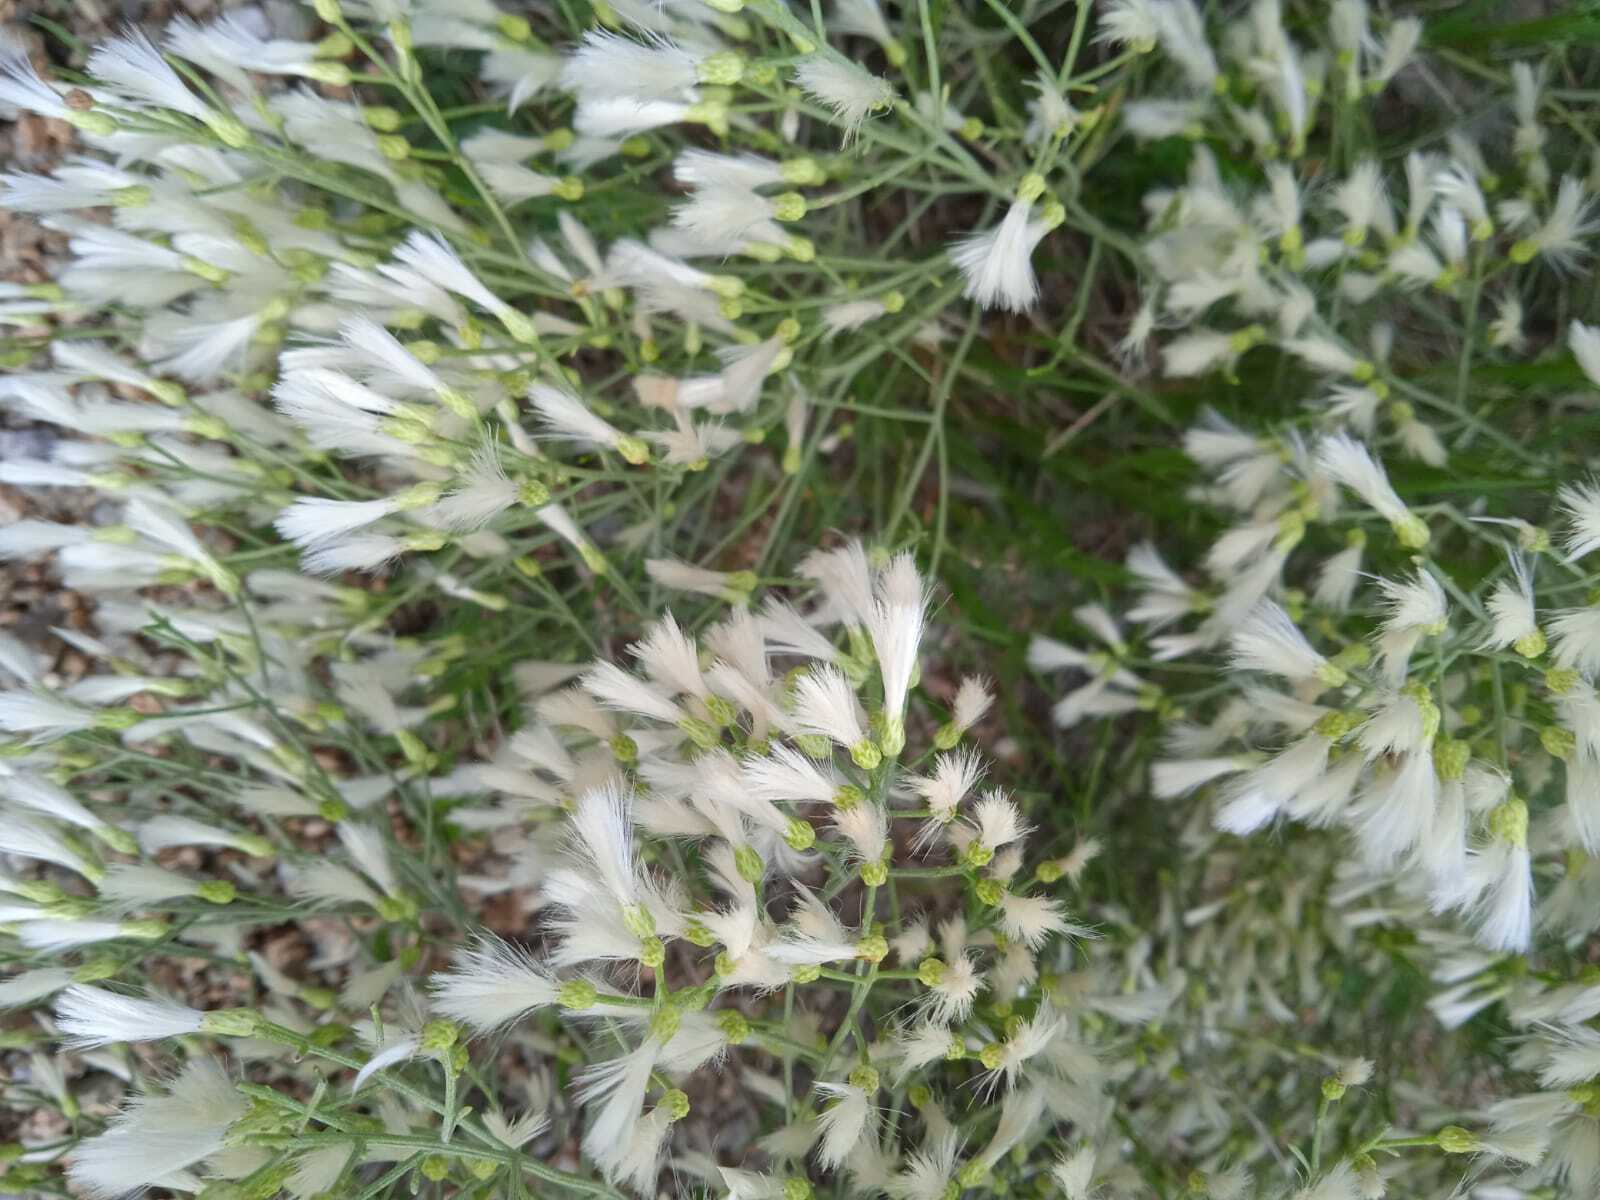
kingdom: Plantae
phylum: Tracheophyta
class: Magnoliopsida
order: Asterales
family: Asteraceae
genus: Baccharis
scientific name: Baccharis notosergila
